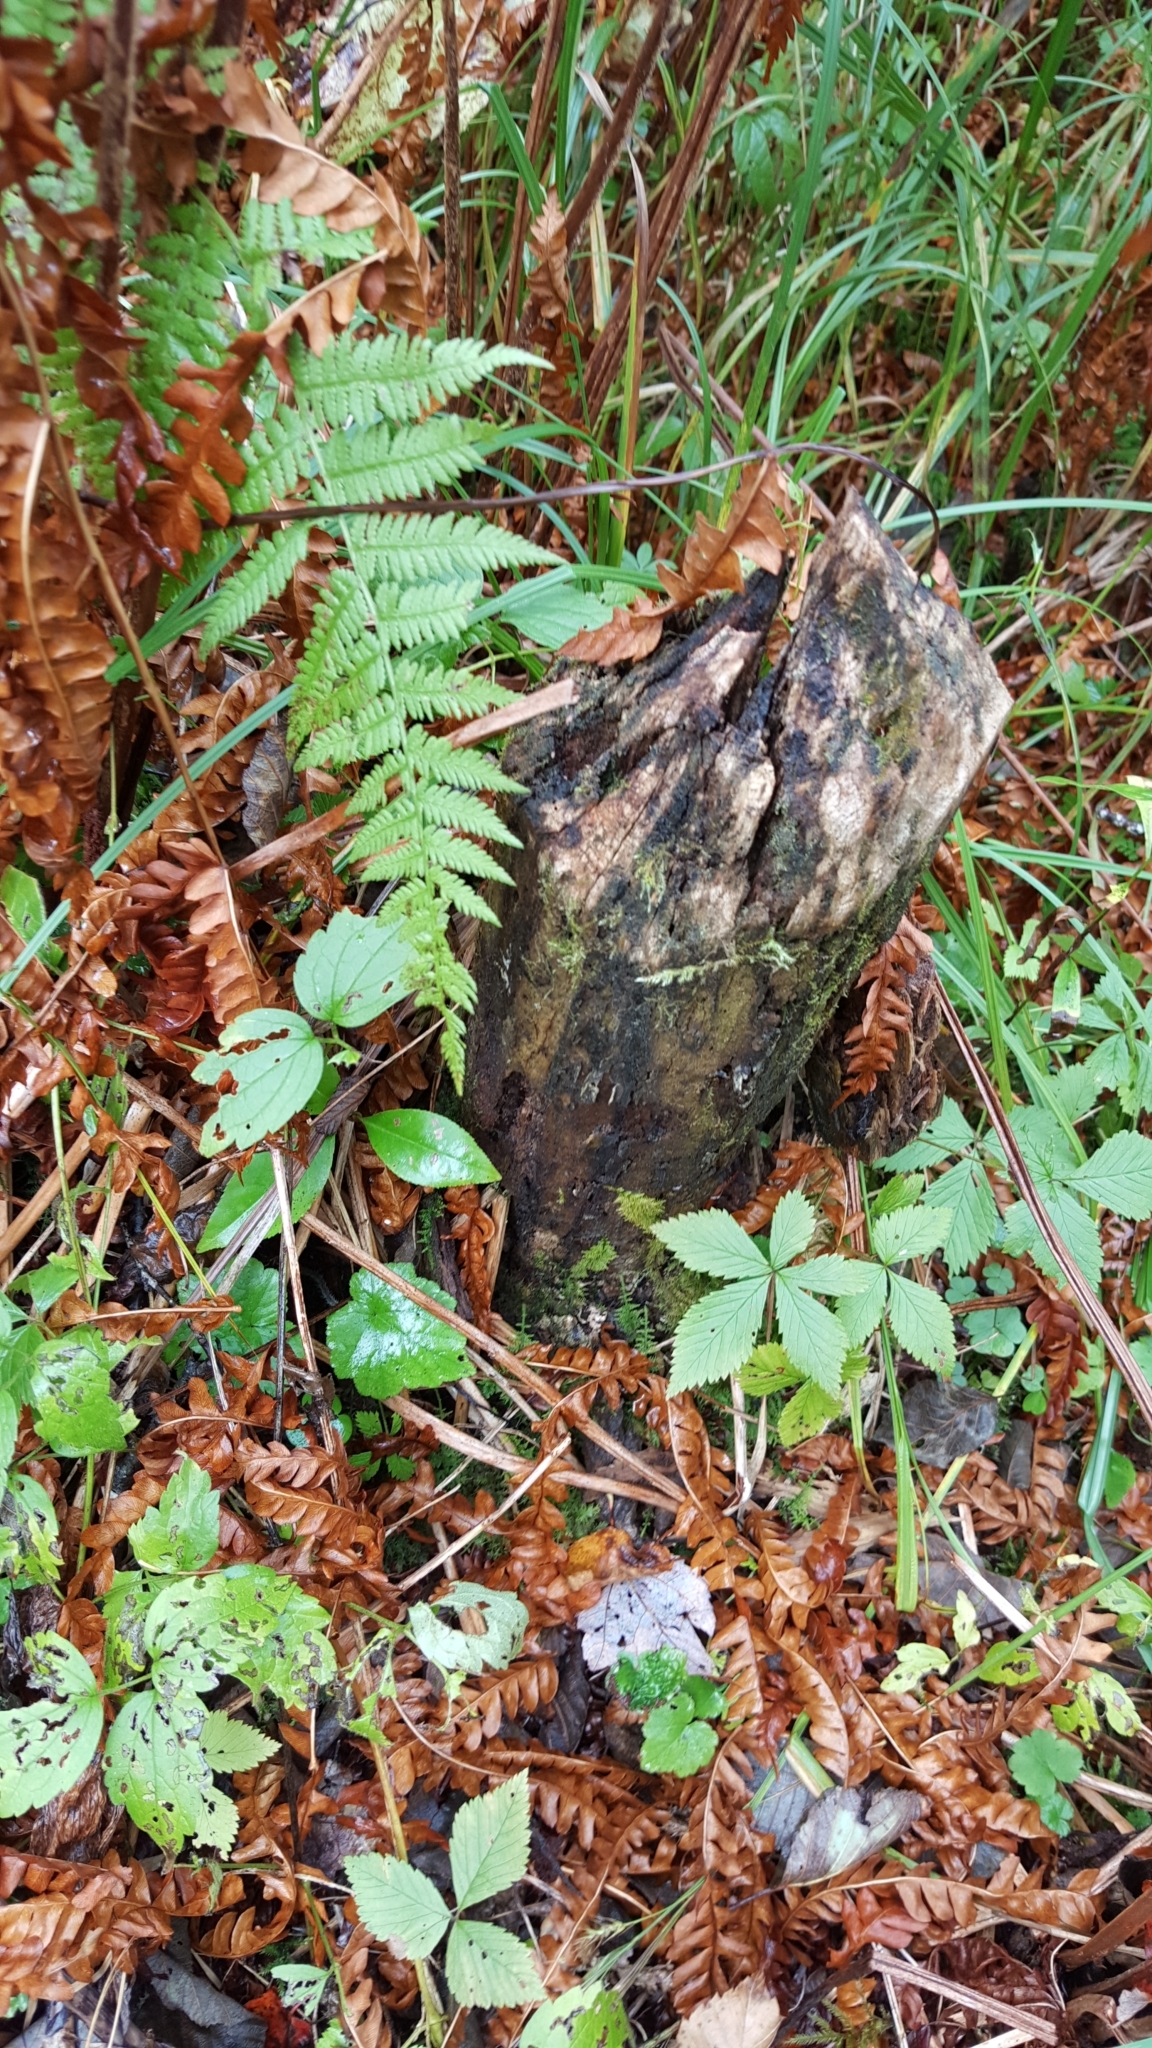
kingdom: Animalia
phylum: Chordata
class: Mammalia
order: Rodentia
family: Castoridae
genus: Castor
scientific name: Castor canadensis
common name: American beaver
